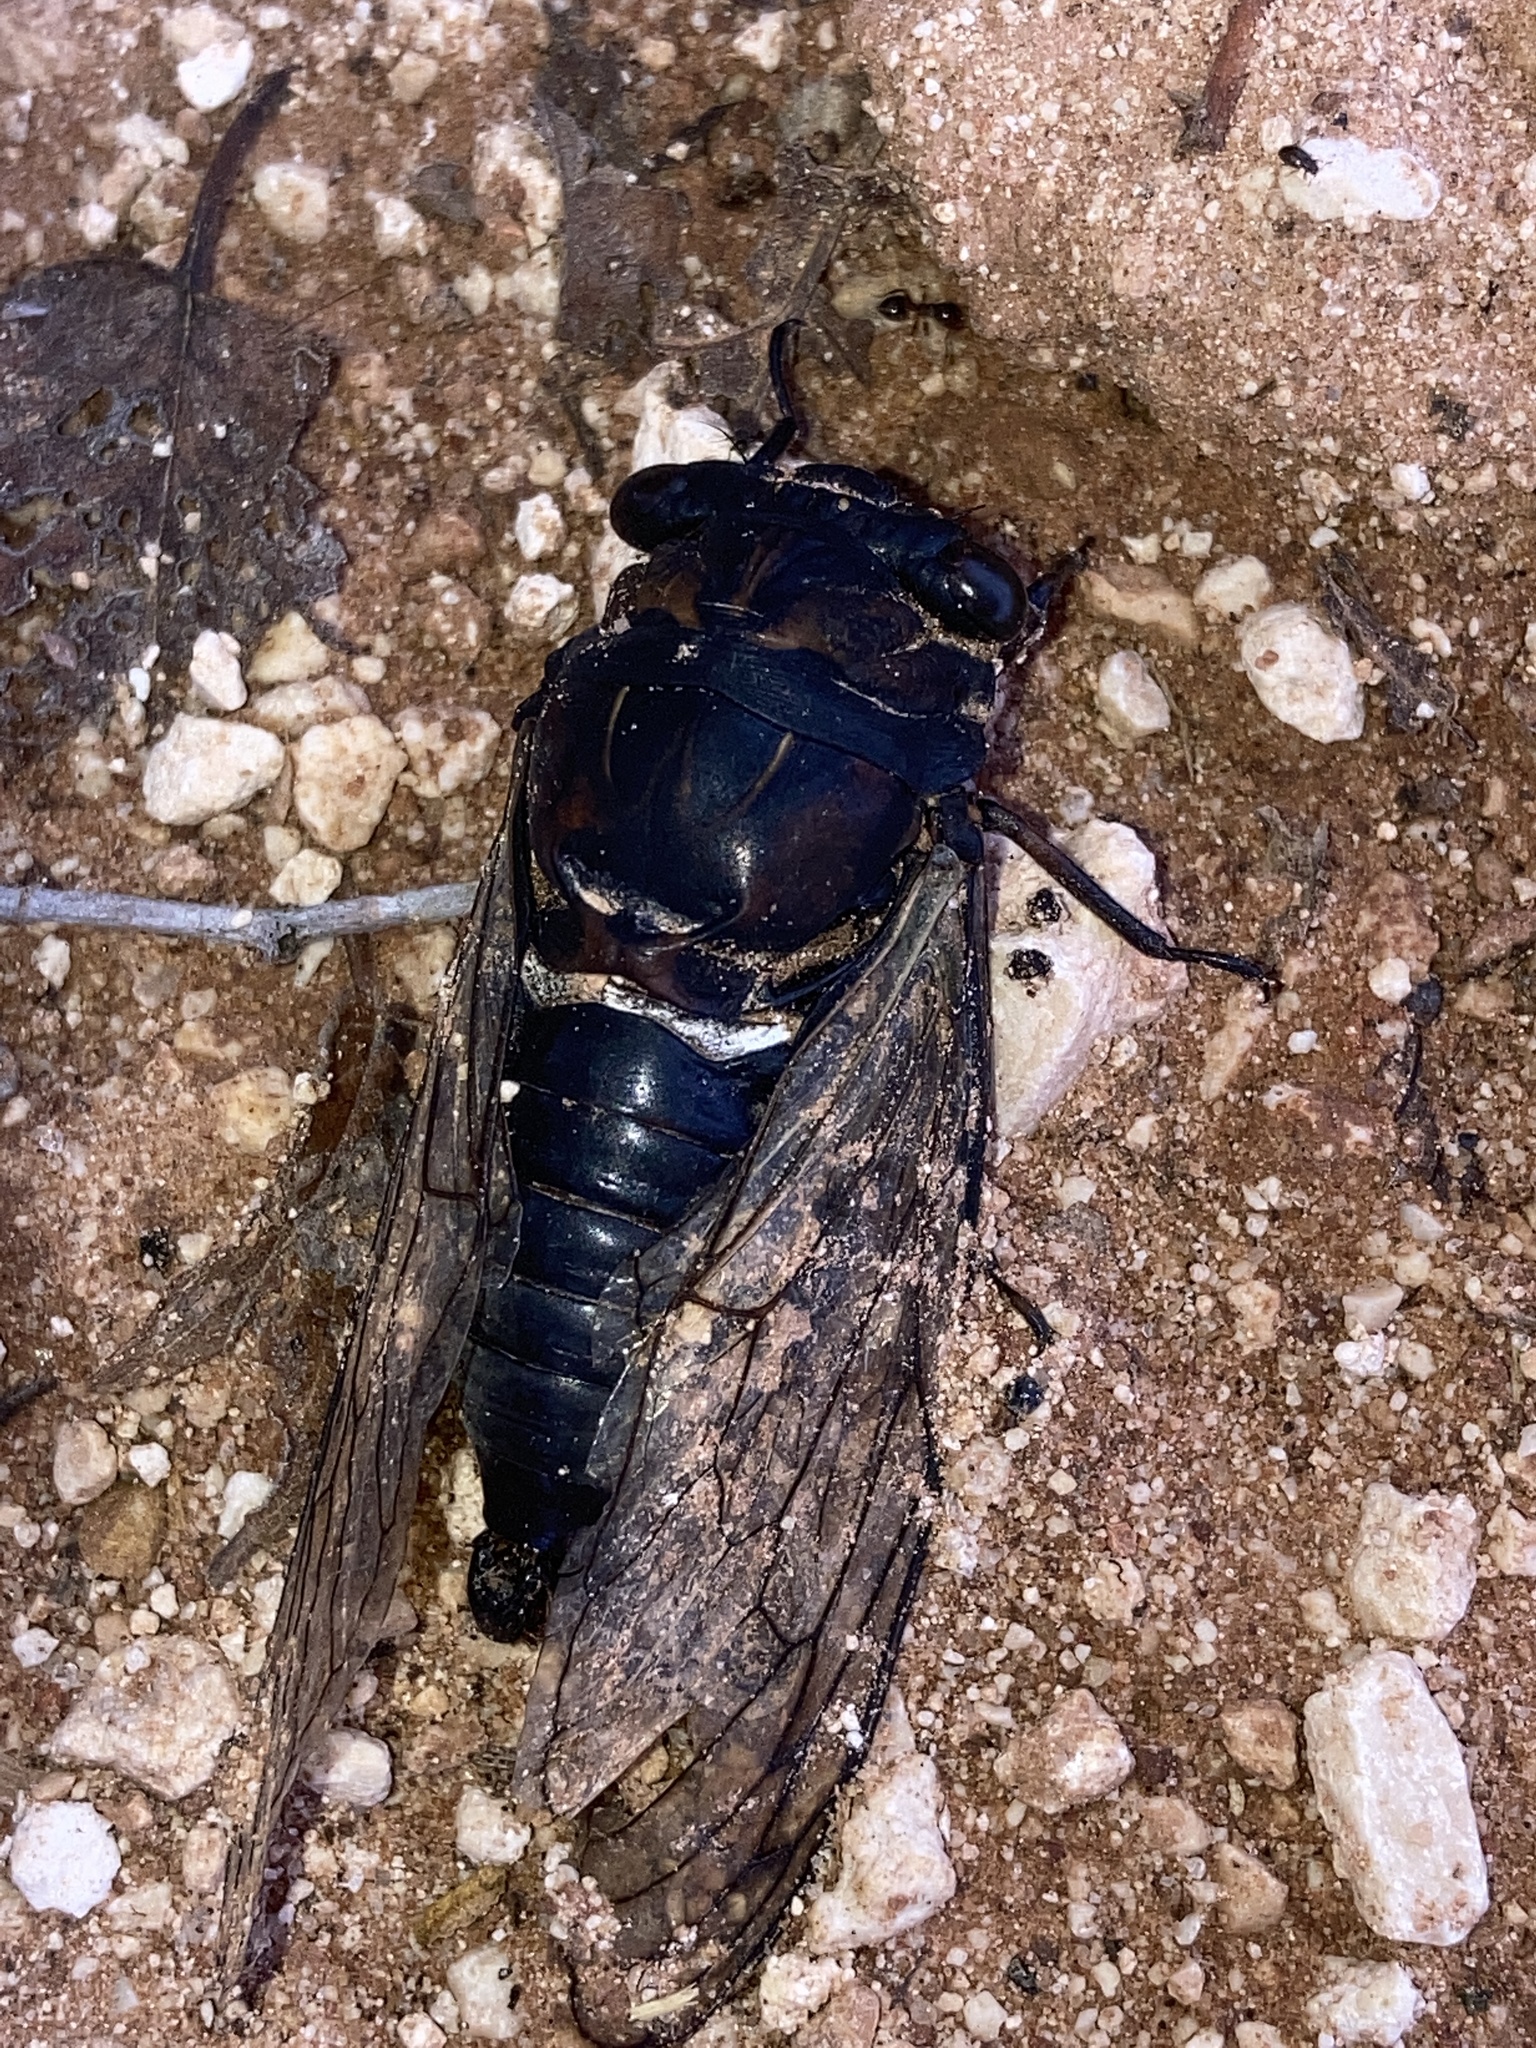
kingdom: Animalia
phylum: Arthropoda
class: Insecta
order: Hemiptera
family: Cicadidae
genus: Neotibicen
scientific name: Neotibicen lyricen
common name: Lyric cicada
